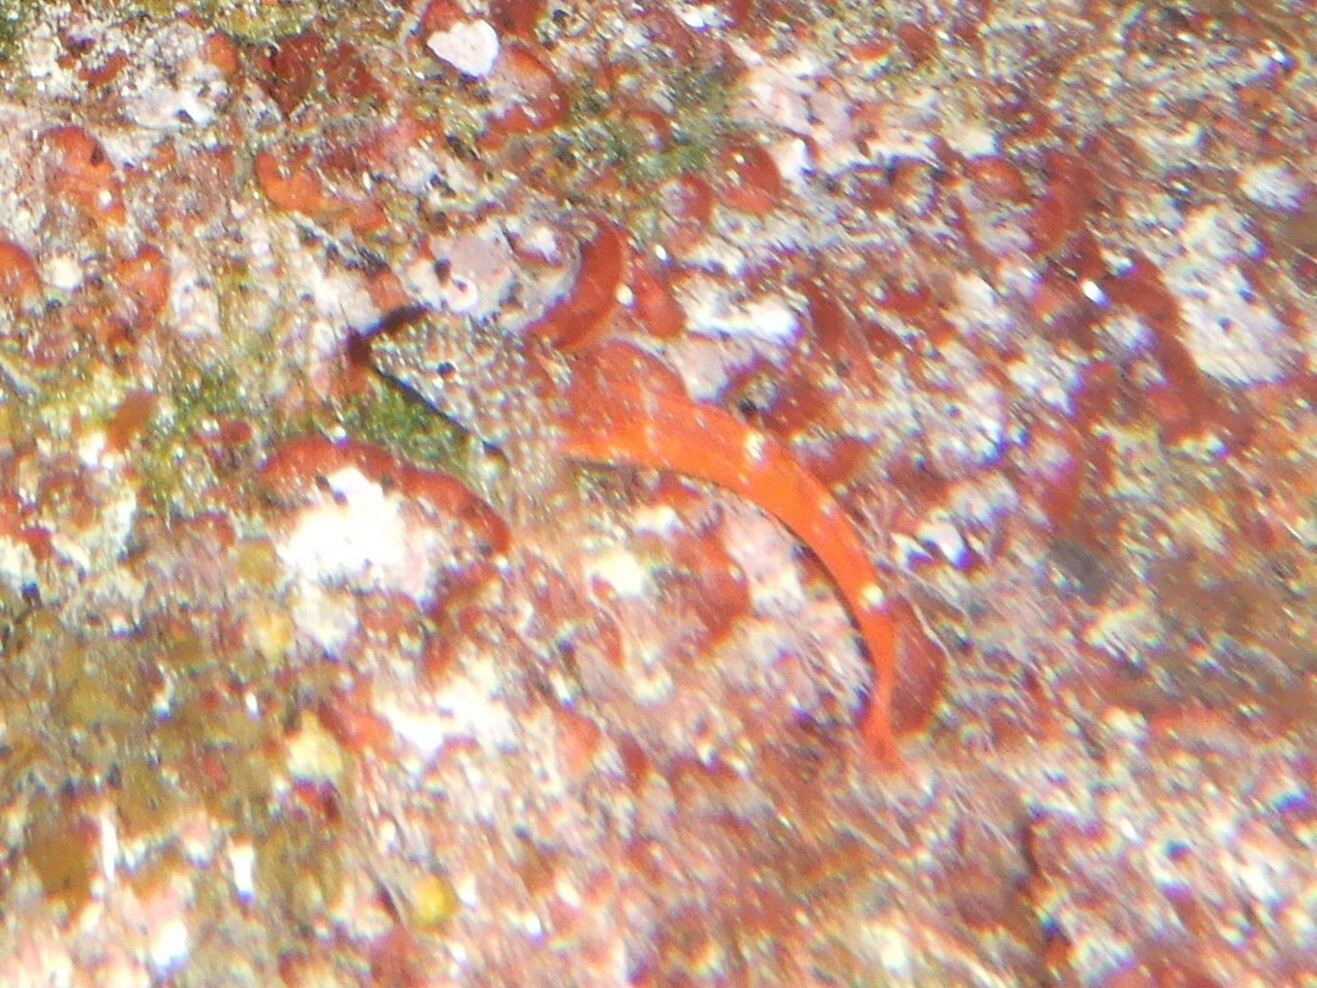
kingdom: Animalia
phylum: Chordata
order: Perciformes
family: Tripterygiidae
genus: Tripterygion
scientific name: Tripterygion melanurum
